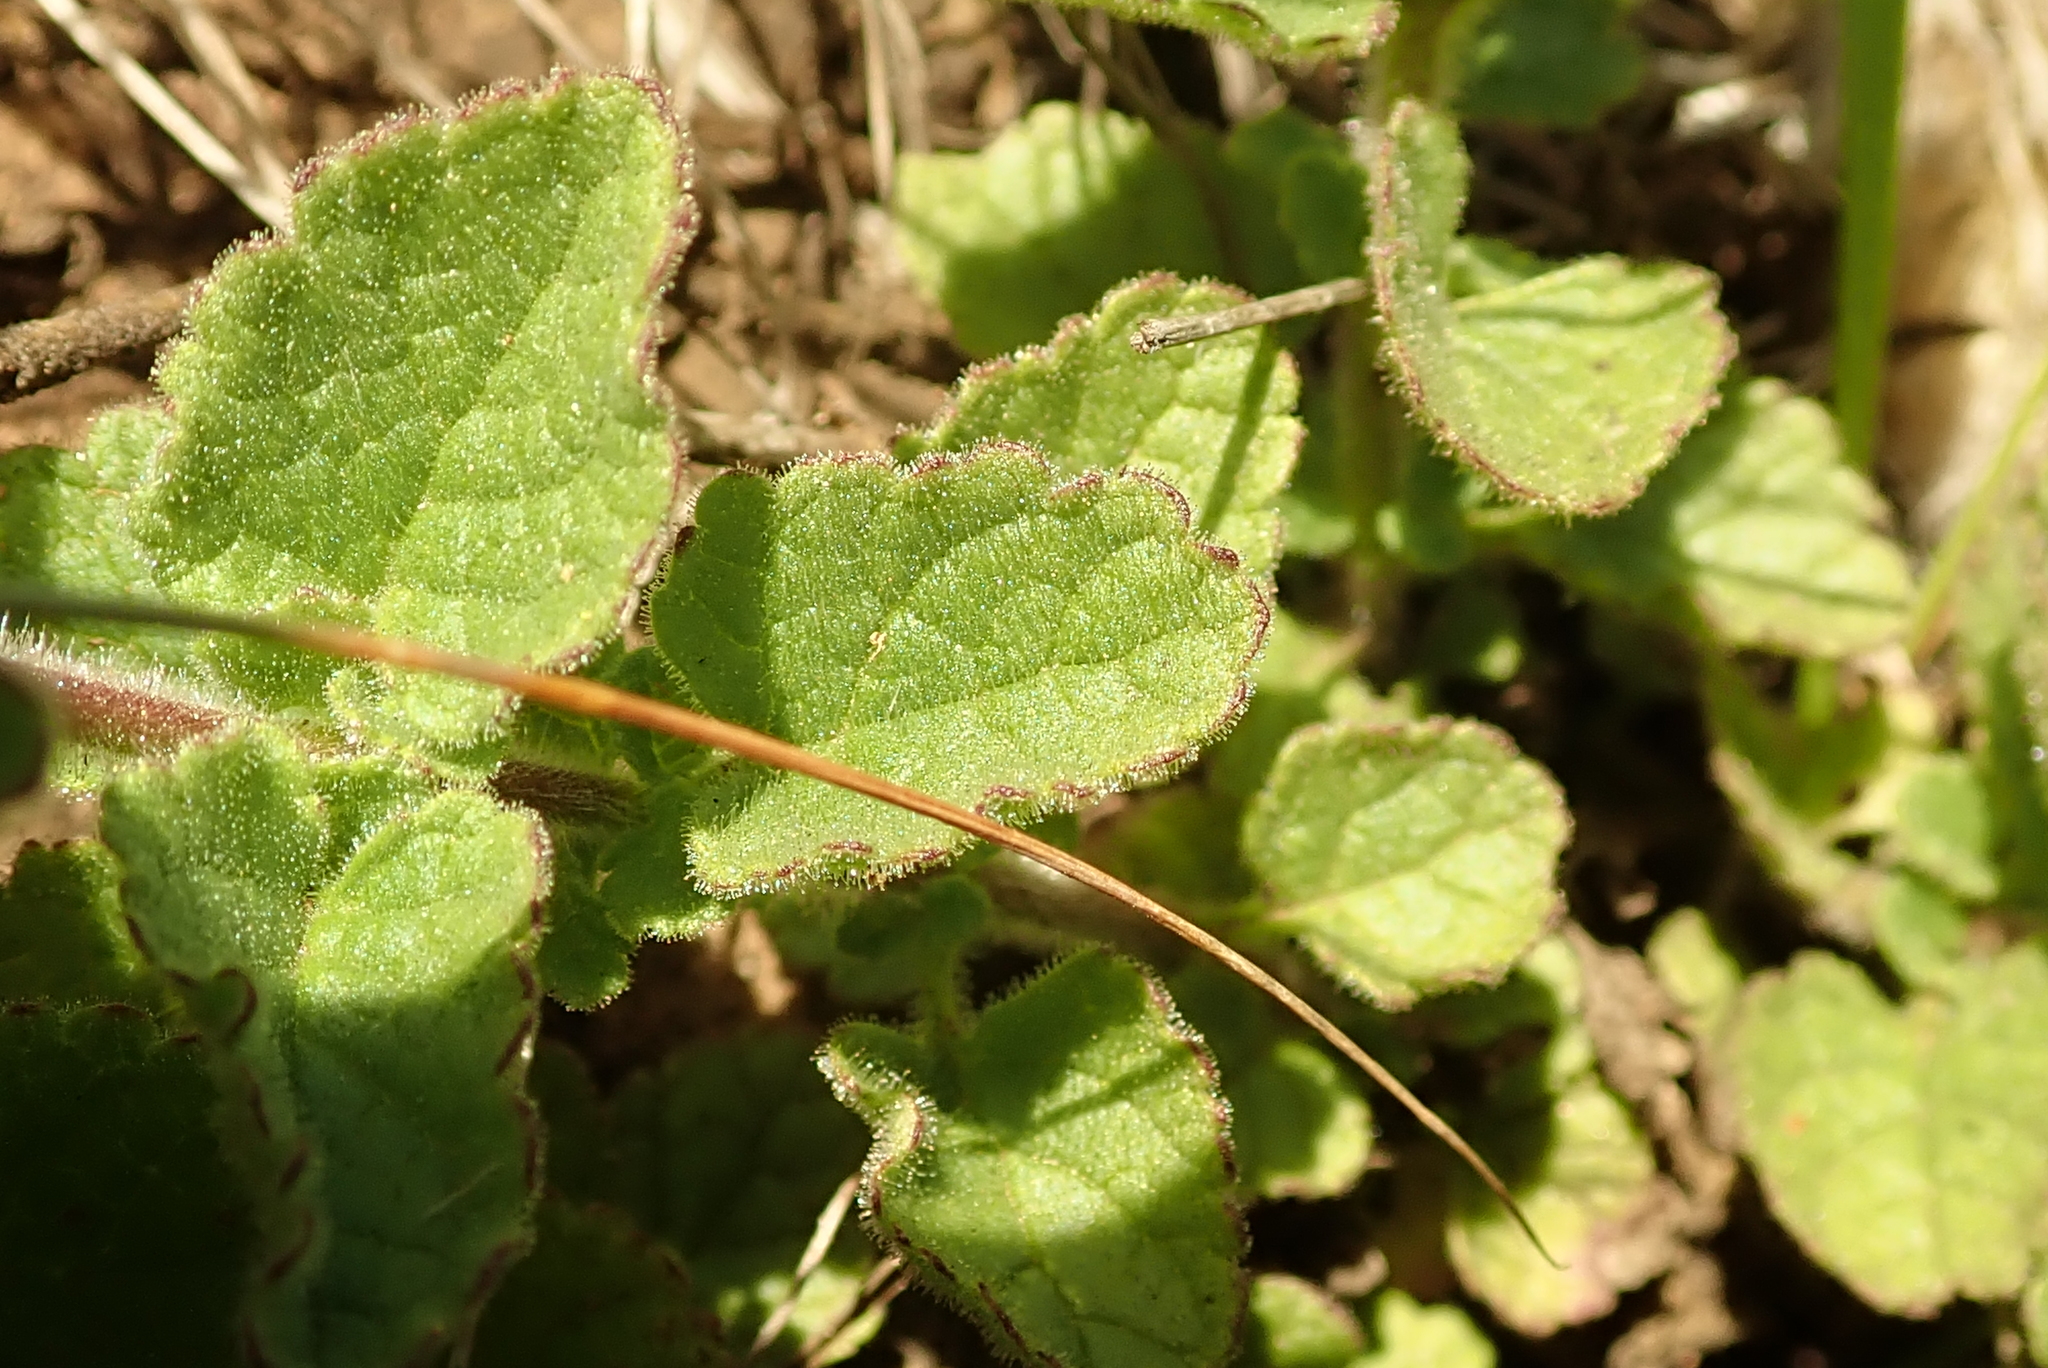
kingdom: Plantae
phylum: Tracheophyta
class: Magnoliopsida
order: Lamiales
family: Scrophulariaceae
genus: Jamesbrittenia
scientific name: Jamesbrittenia breviflora
